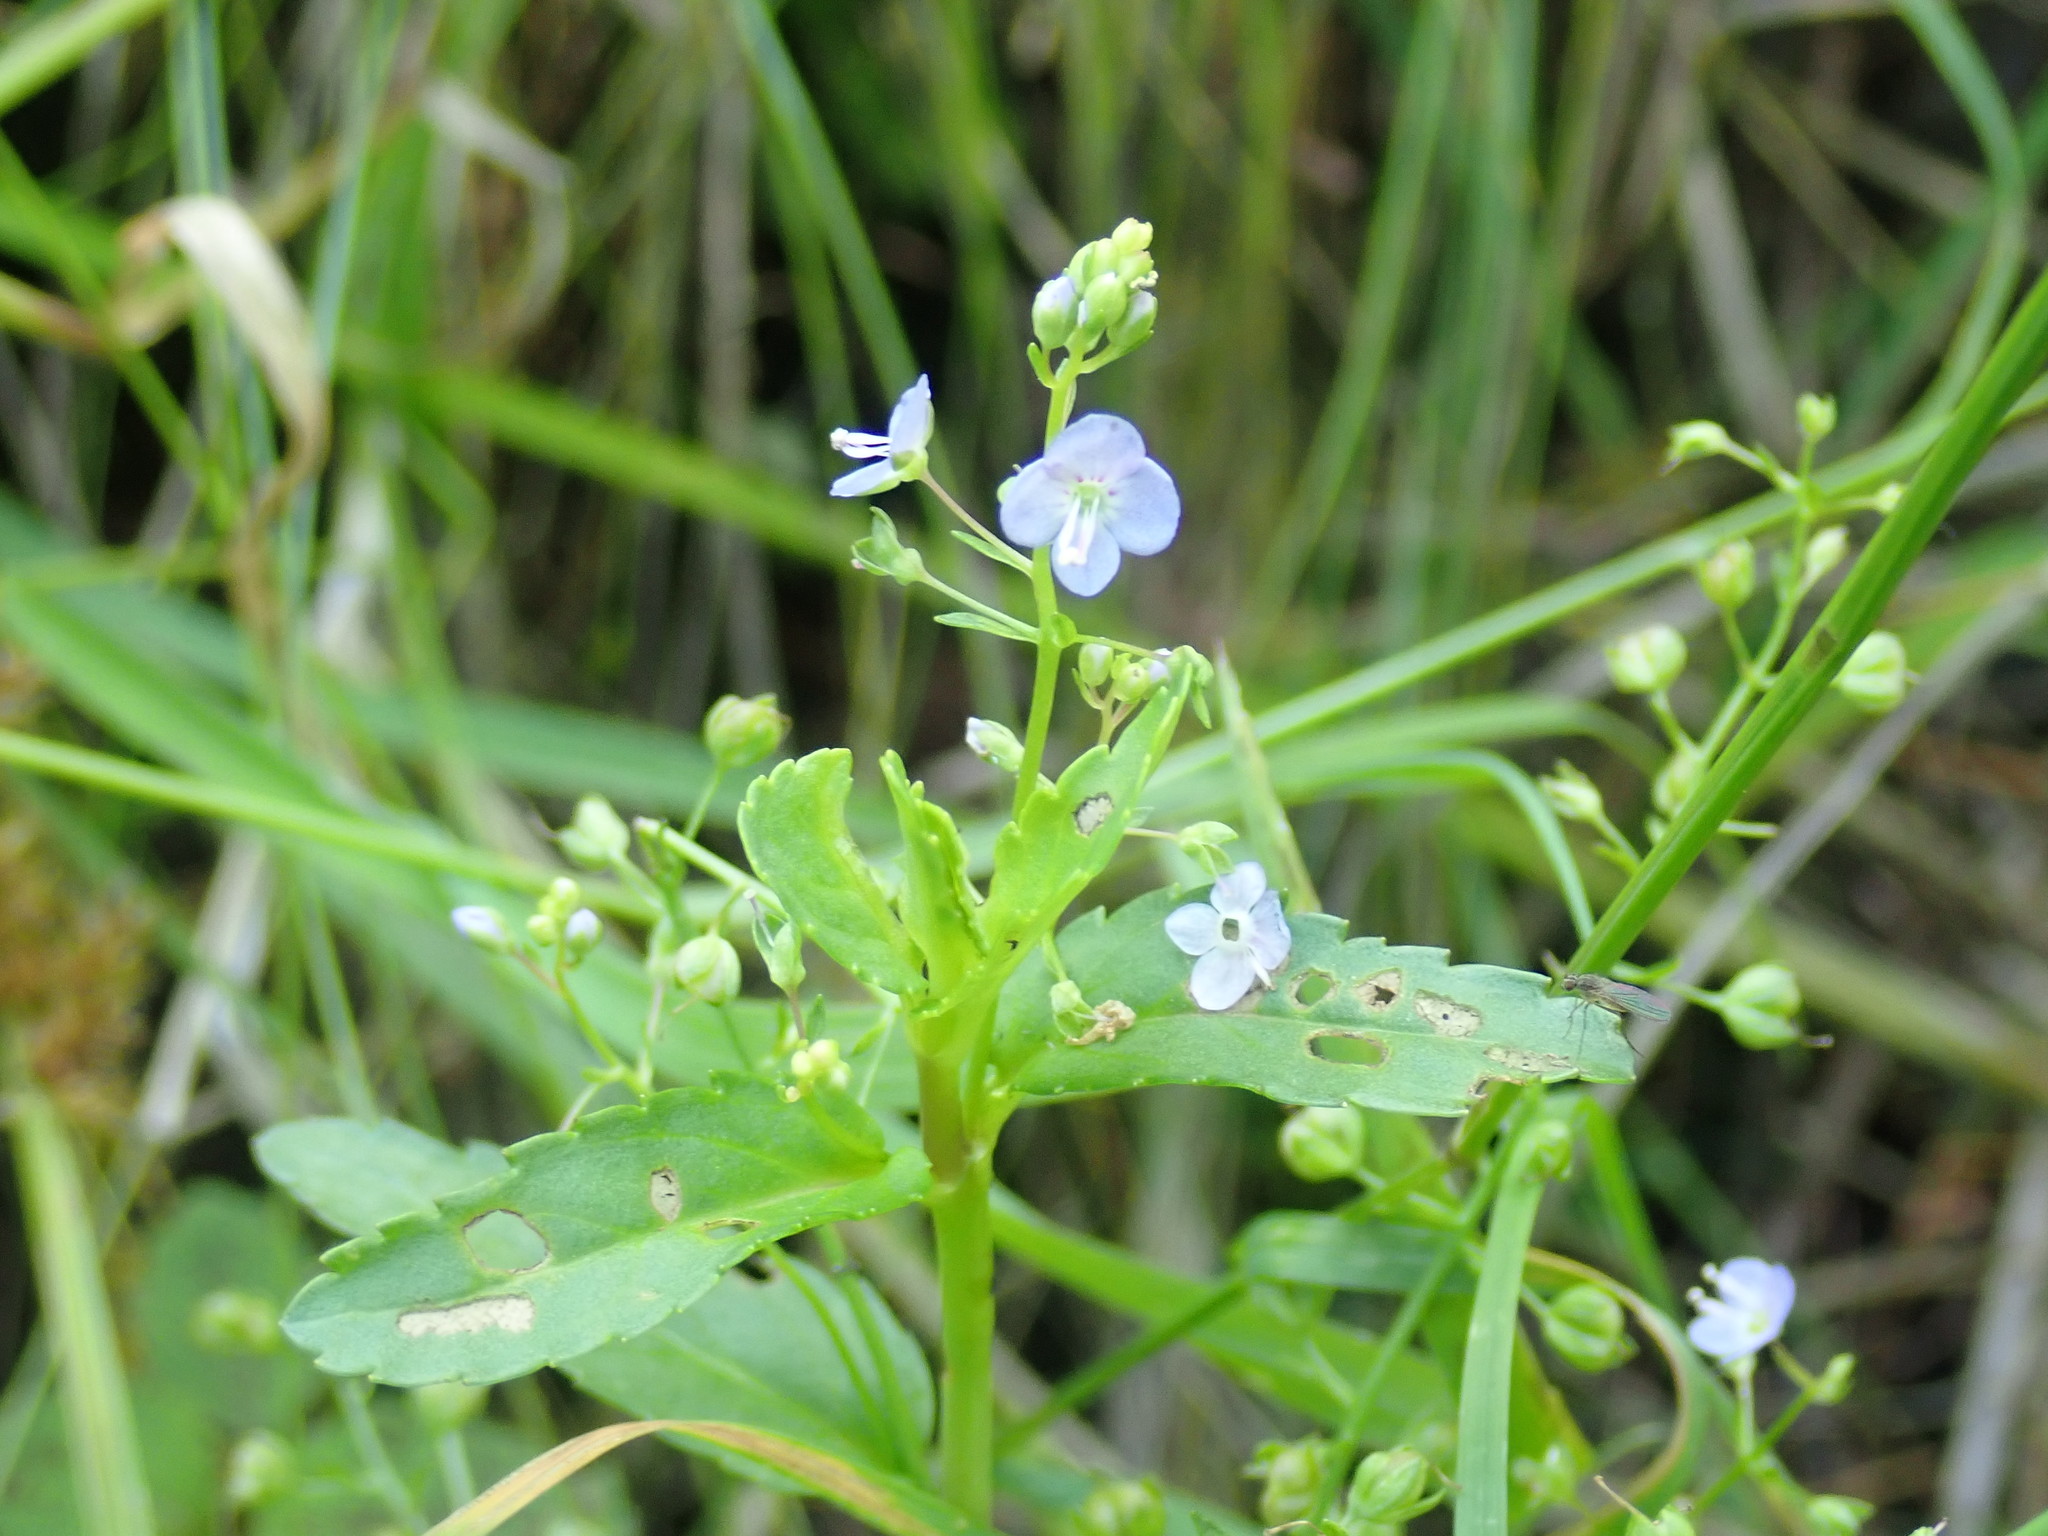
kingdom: Plantae
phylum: Tracheophyta
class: Magnoliopsida
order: Lamiales
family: Plantaginaceae
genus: Veronica
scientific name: Veronica americana
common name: American brooklime
